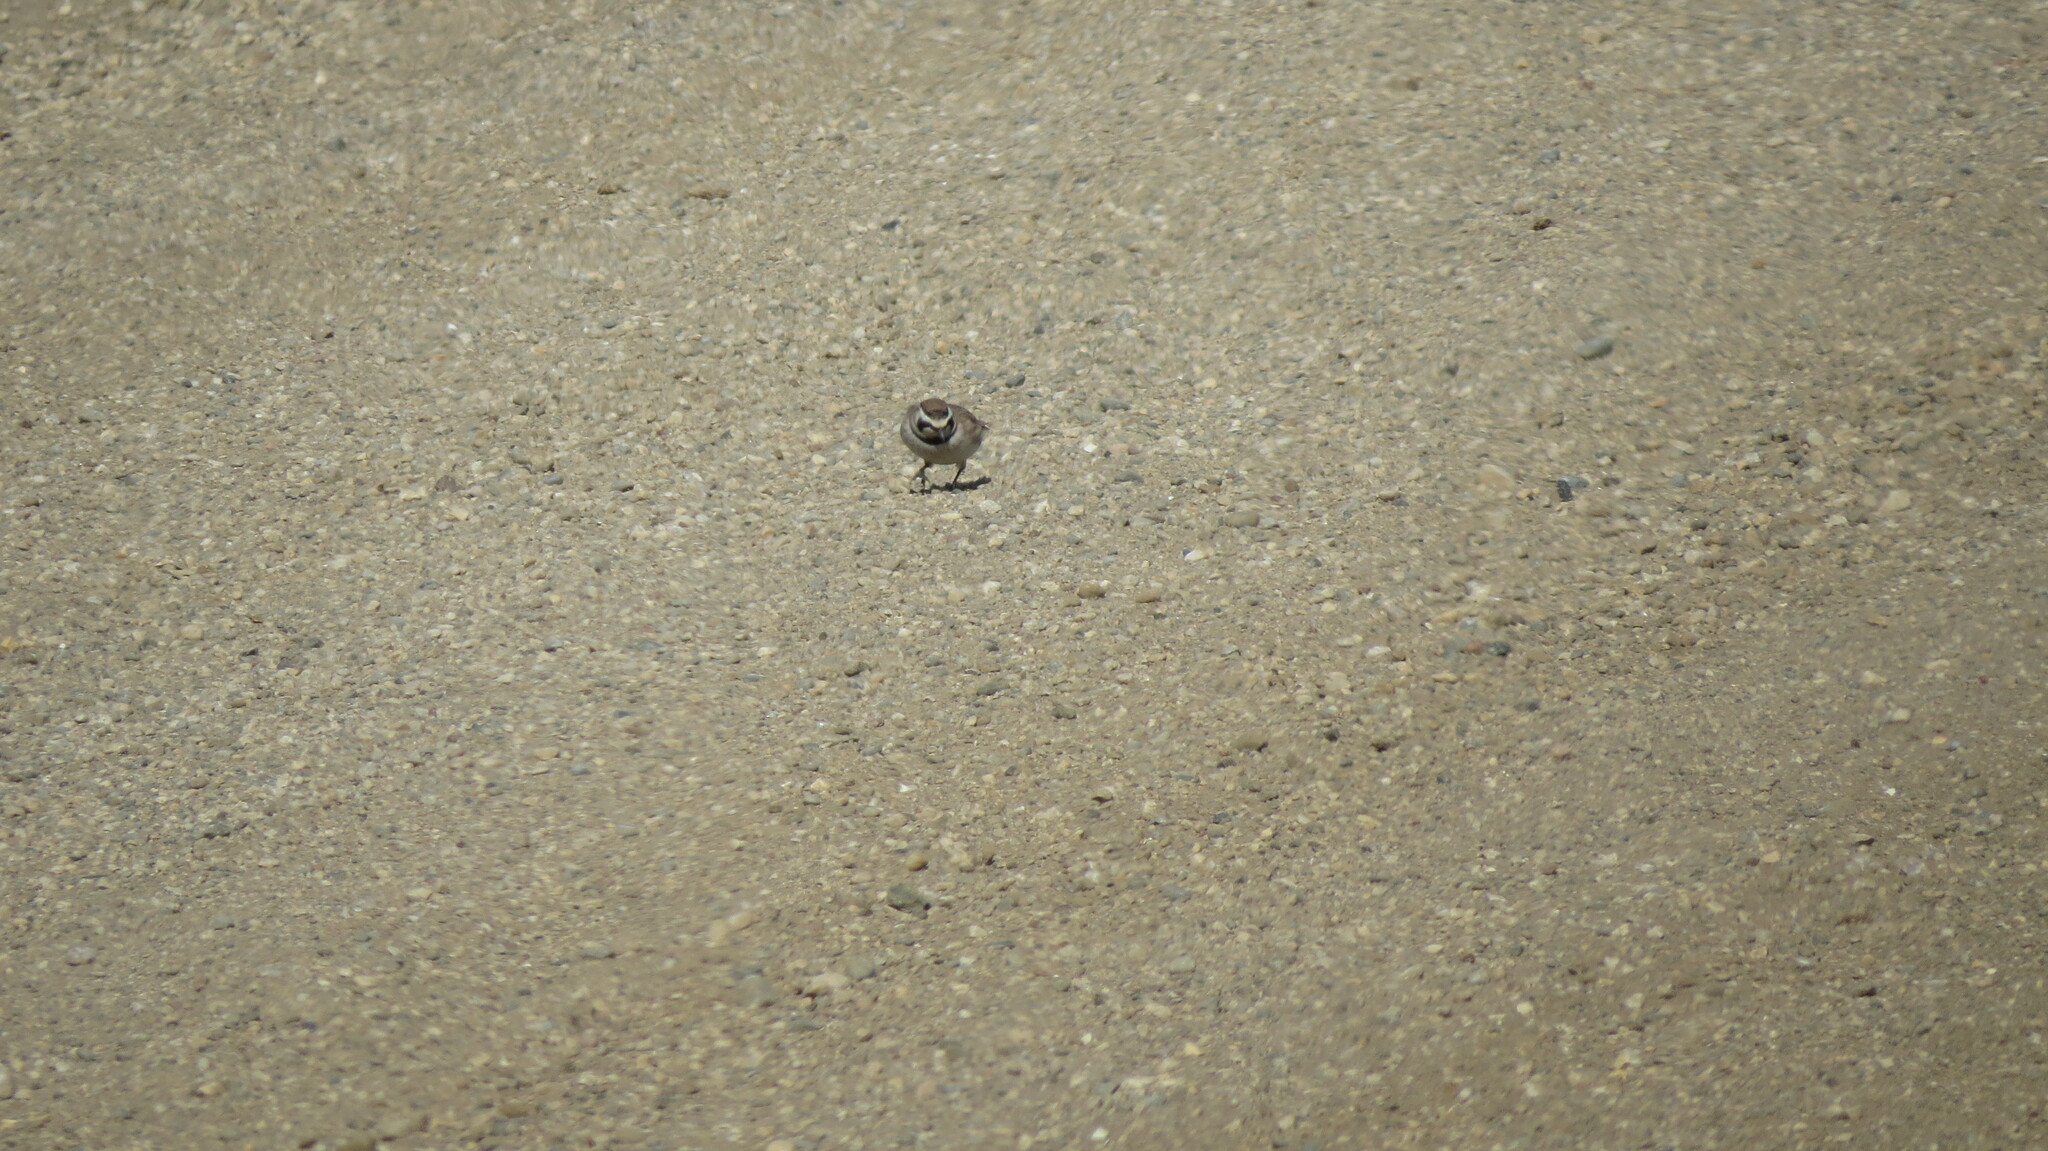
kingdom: Animalia
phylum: Chordata
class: Aves
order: Passeriformes
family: Alaudidae
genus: Eremophila
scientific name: Eremophila alpestris
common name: Horned lark
